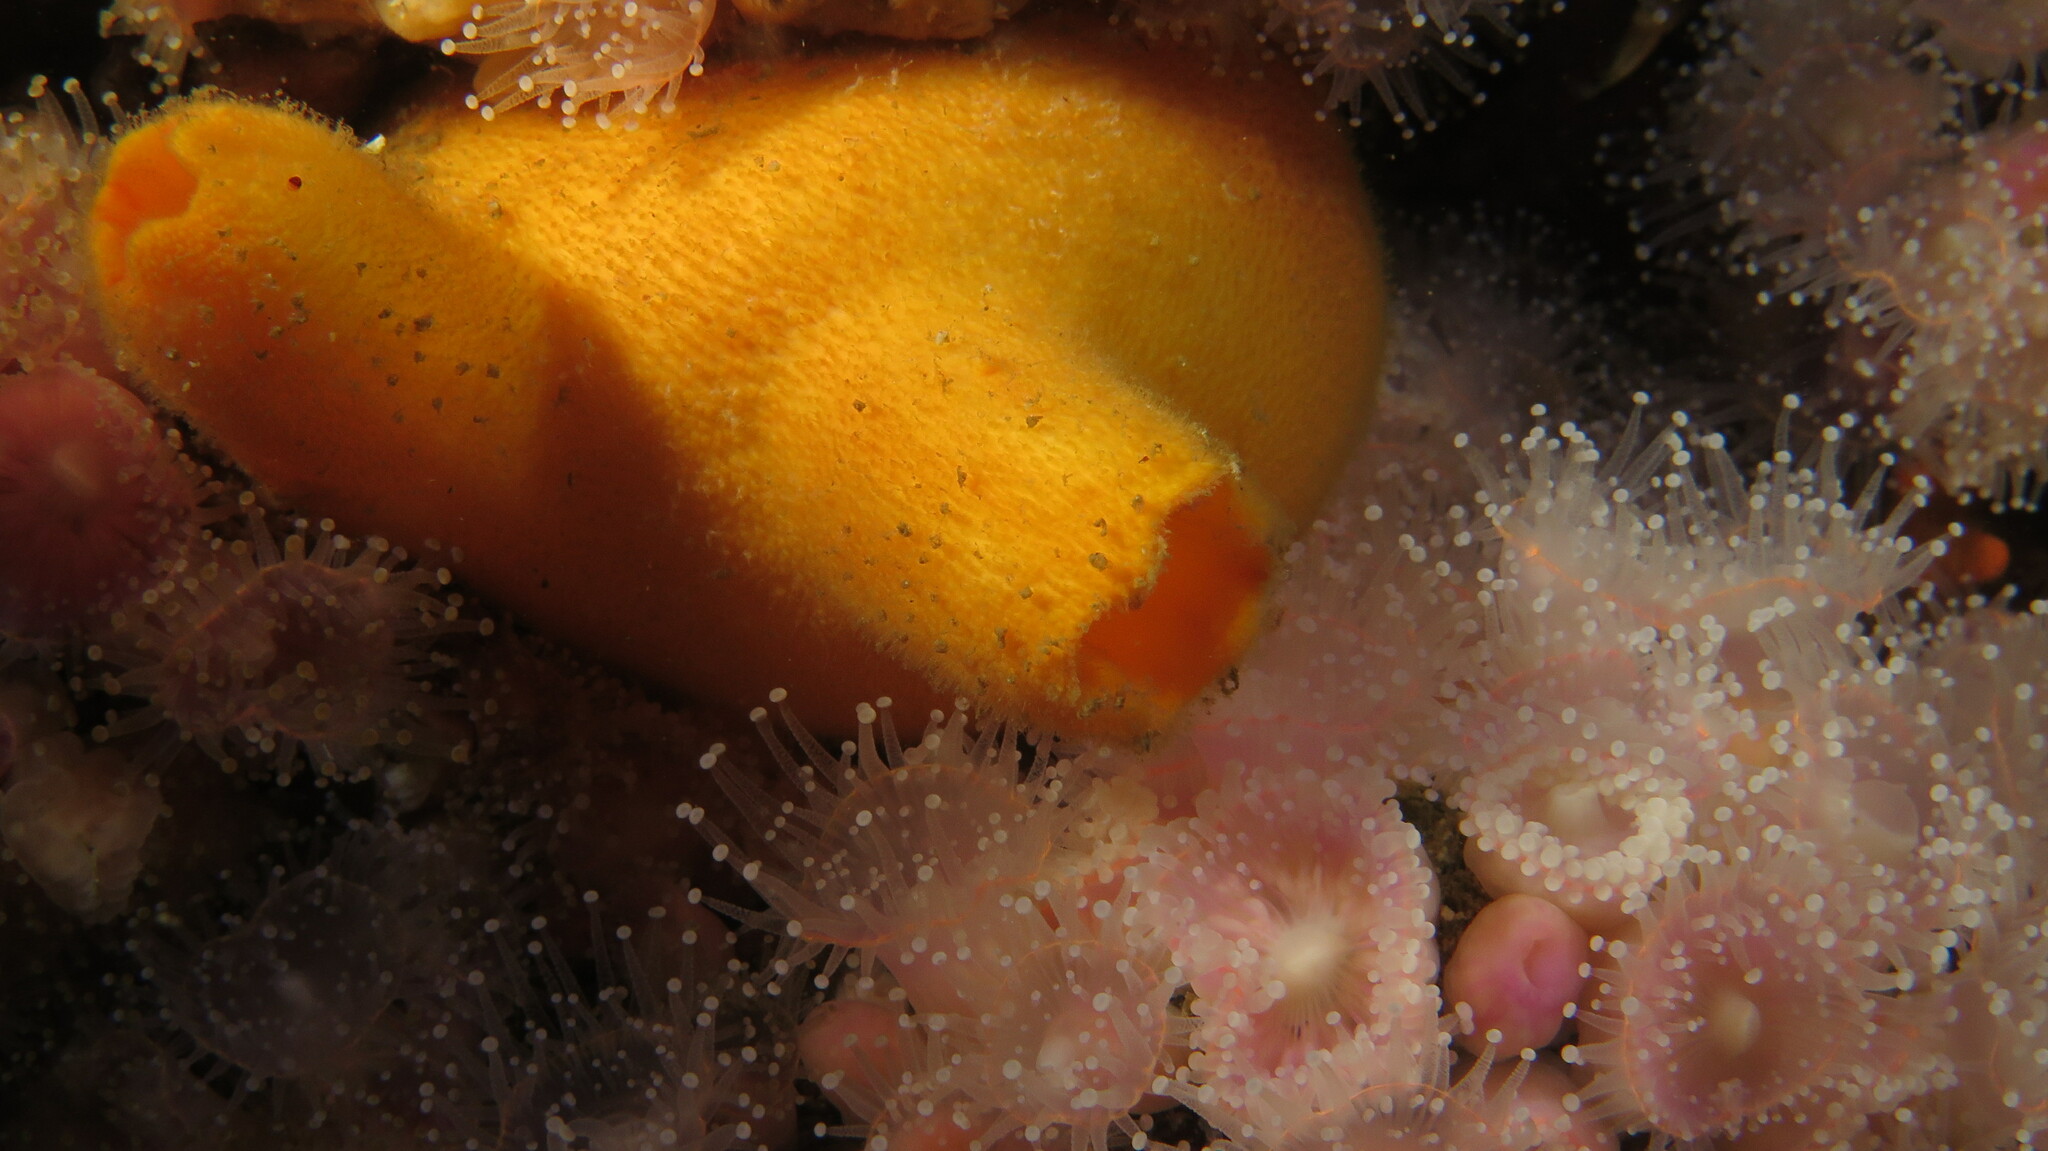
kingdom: Animalia
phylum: Chordata
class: Ascidiacea
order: Phlebobranchia
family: Ascidiidae
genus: Ascidia
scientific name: Ascidia incrassata
